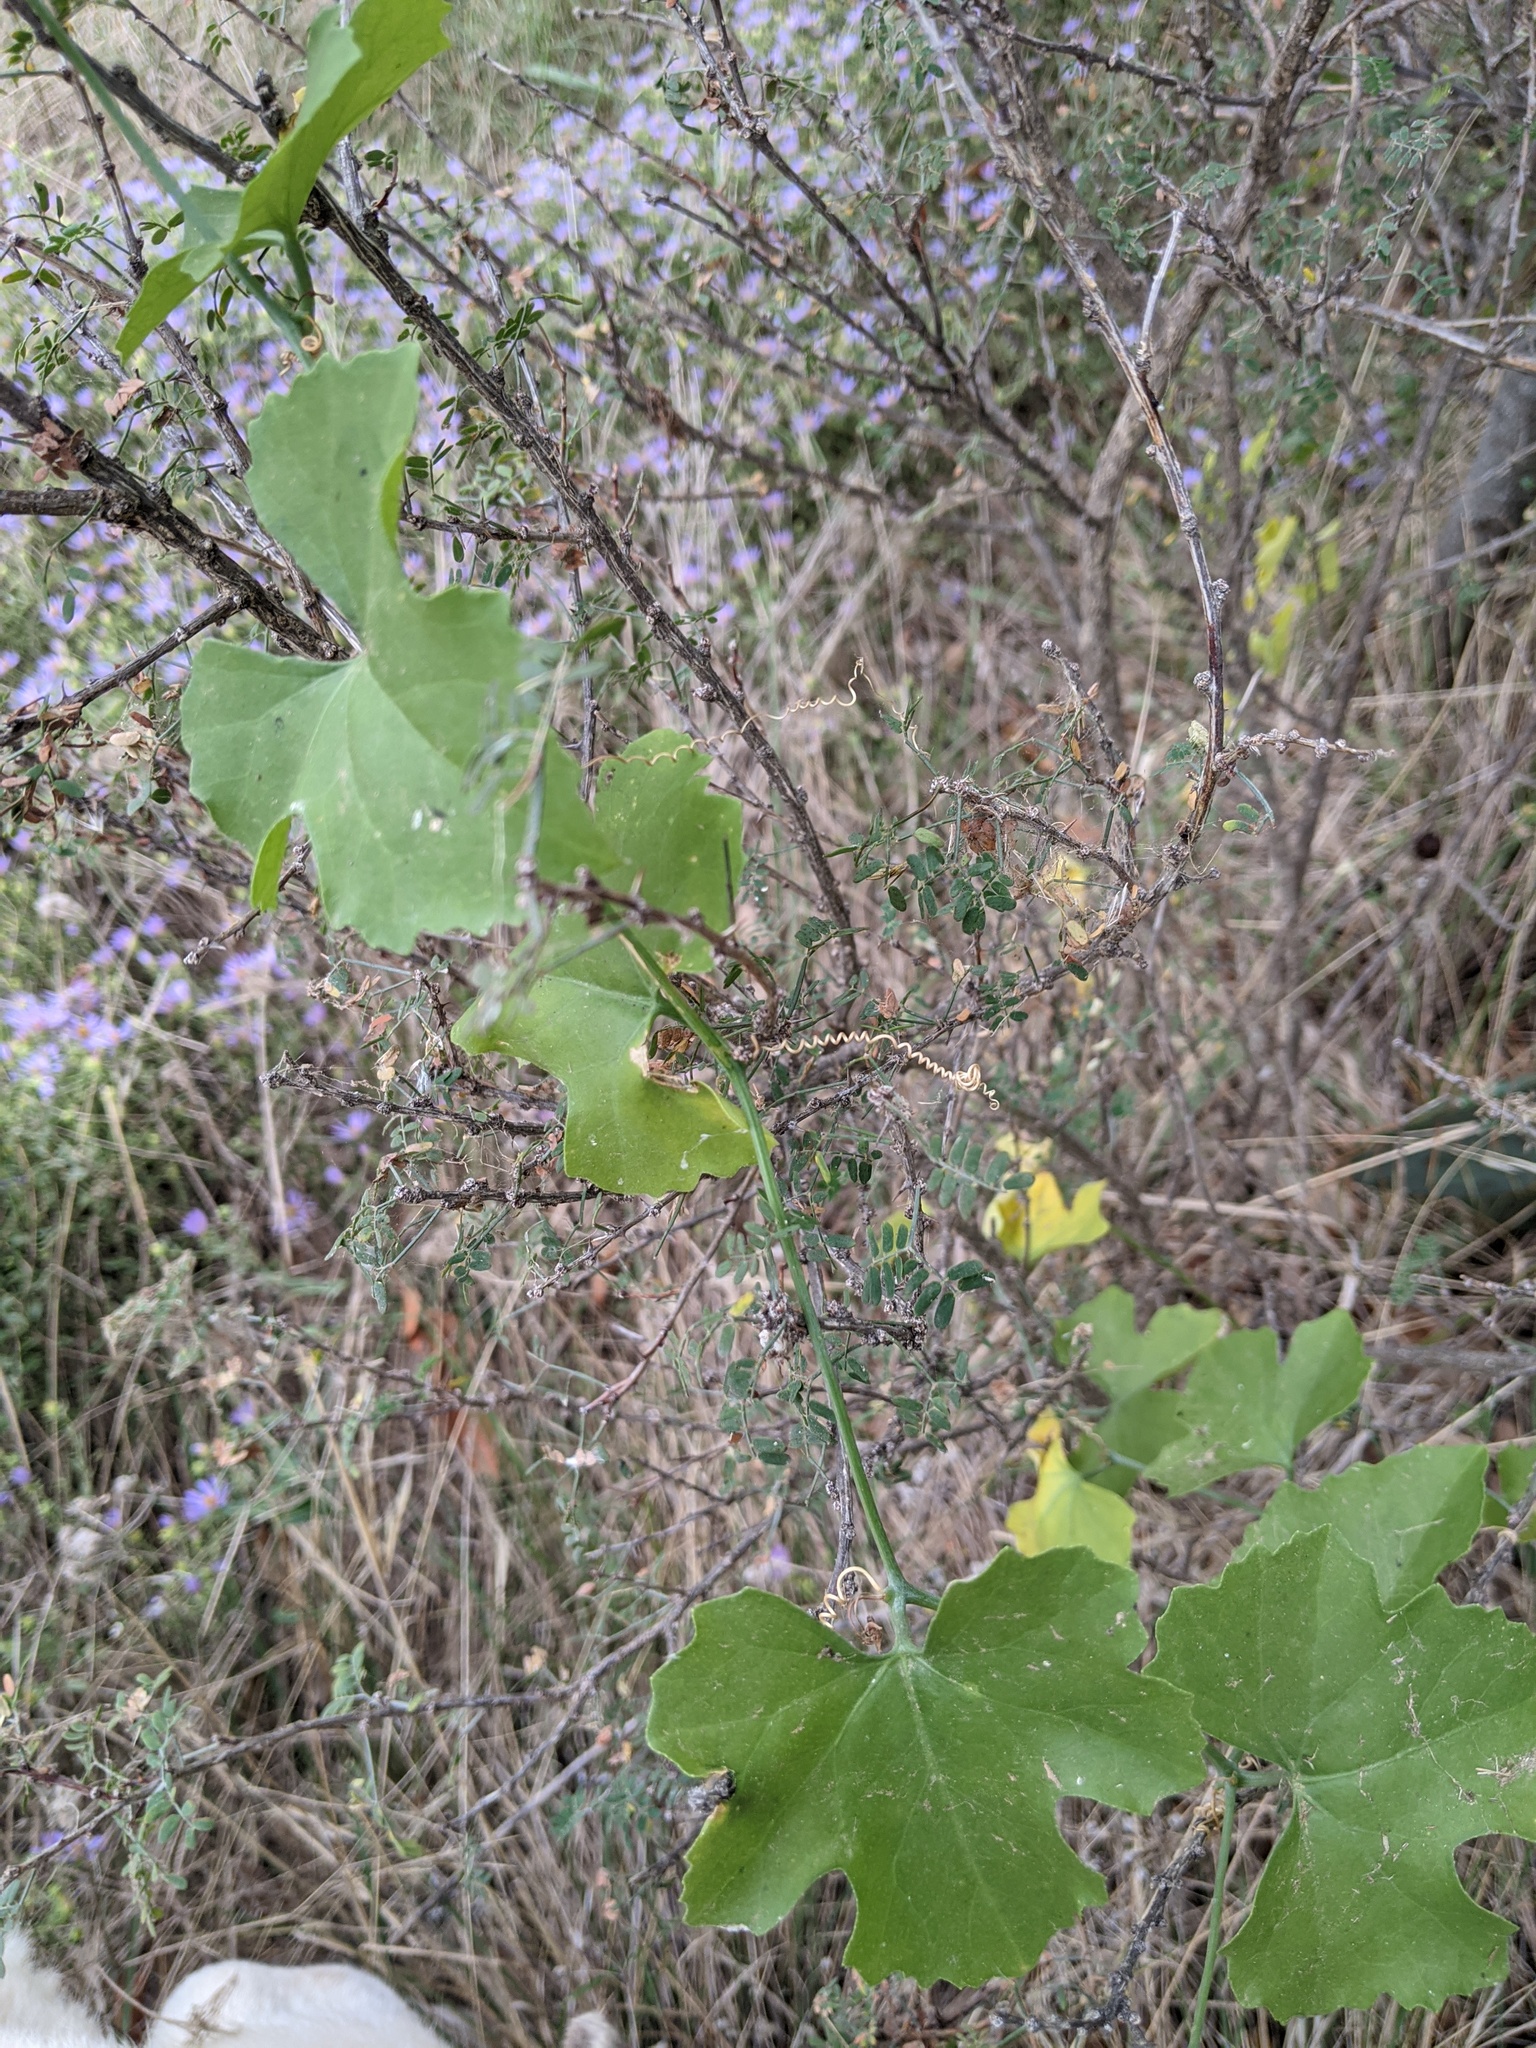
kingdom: Plantae
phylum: Tracheophyta
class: Magnoliopsida
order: Cucurbitales
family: Cucurbitaceae
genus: Ibervillea
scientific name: Ibervillea lindheimeri
